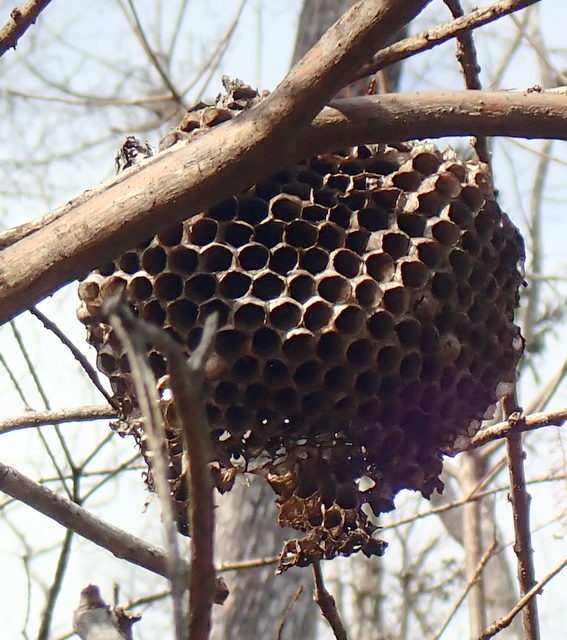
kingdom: Animalia
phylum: Arthropoda
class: Insecta
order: Hymenoptera
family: Eumenidae
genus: Polistes
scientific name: Polistes annularis
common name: Ringed paper wasp
